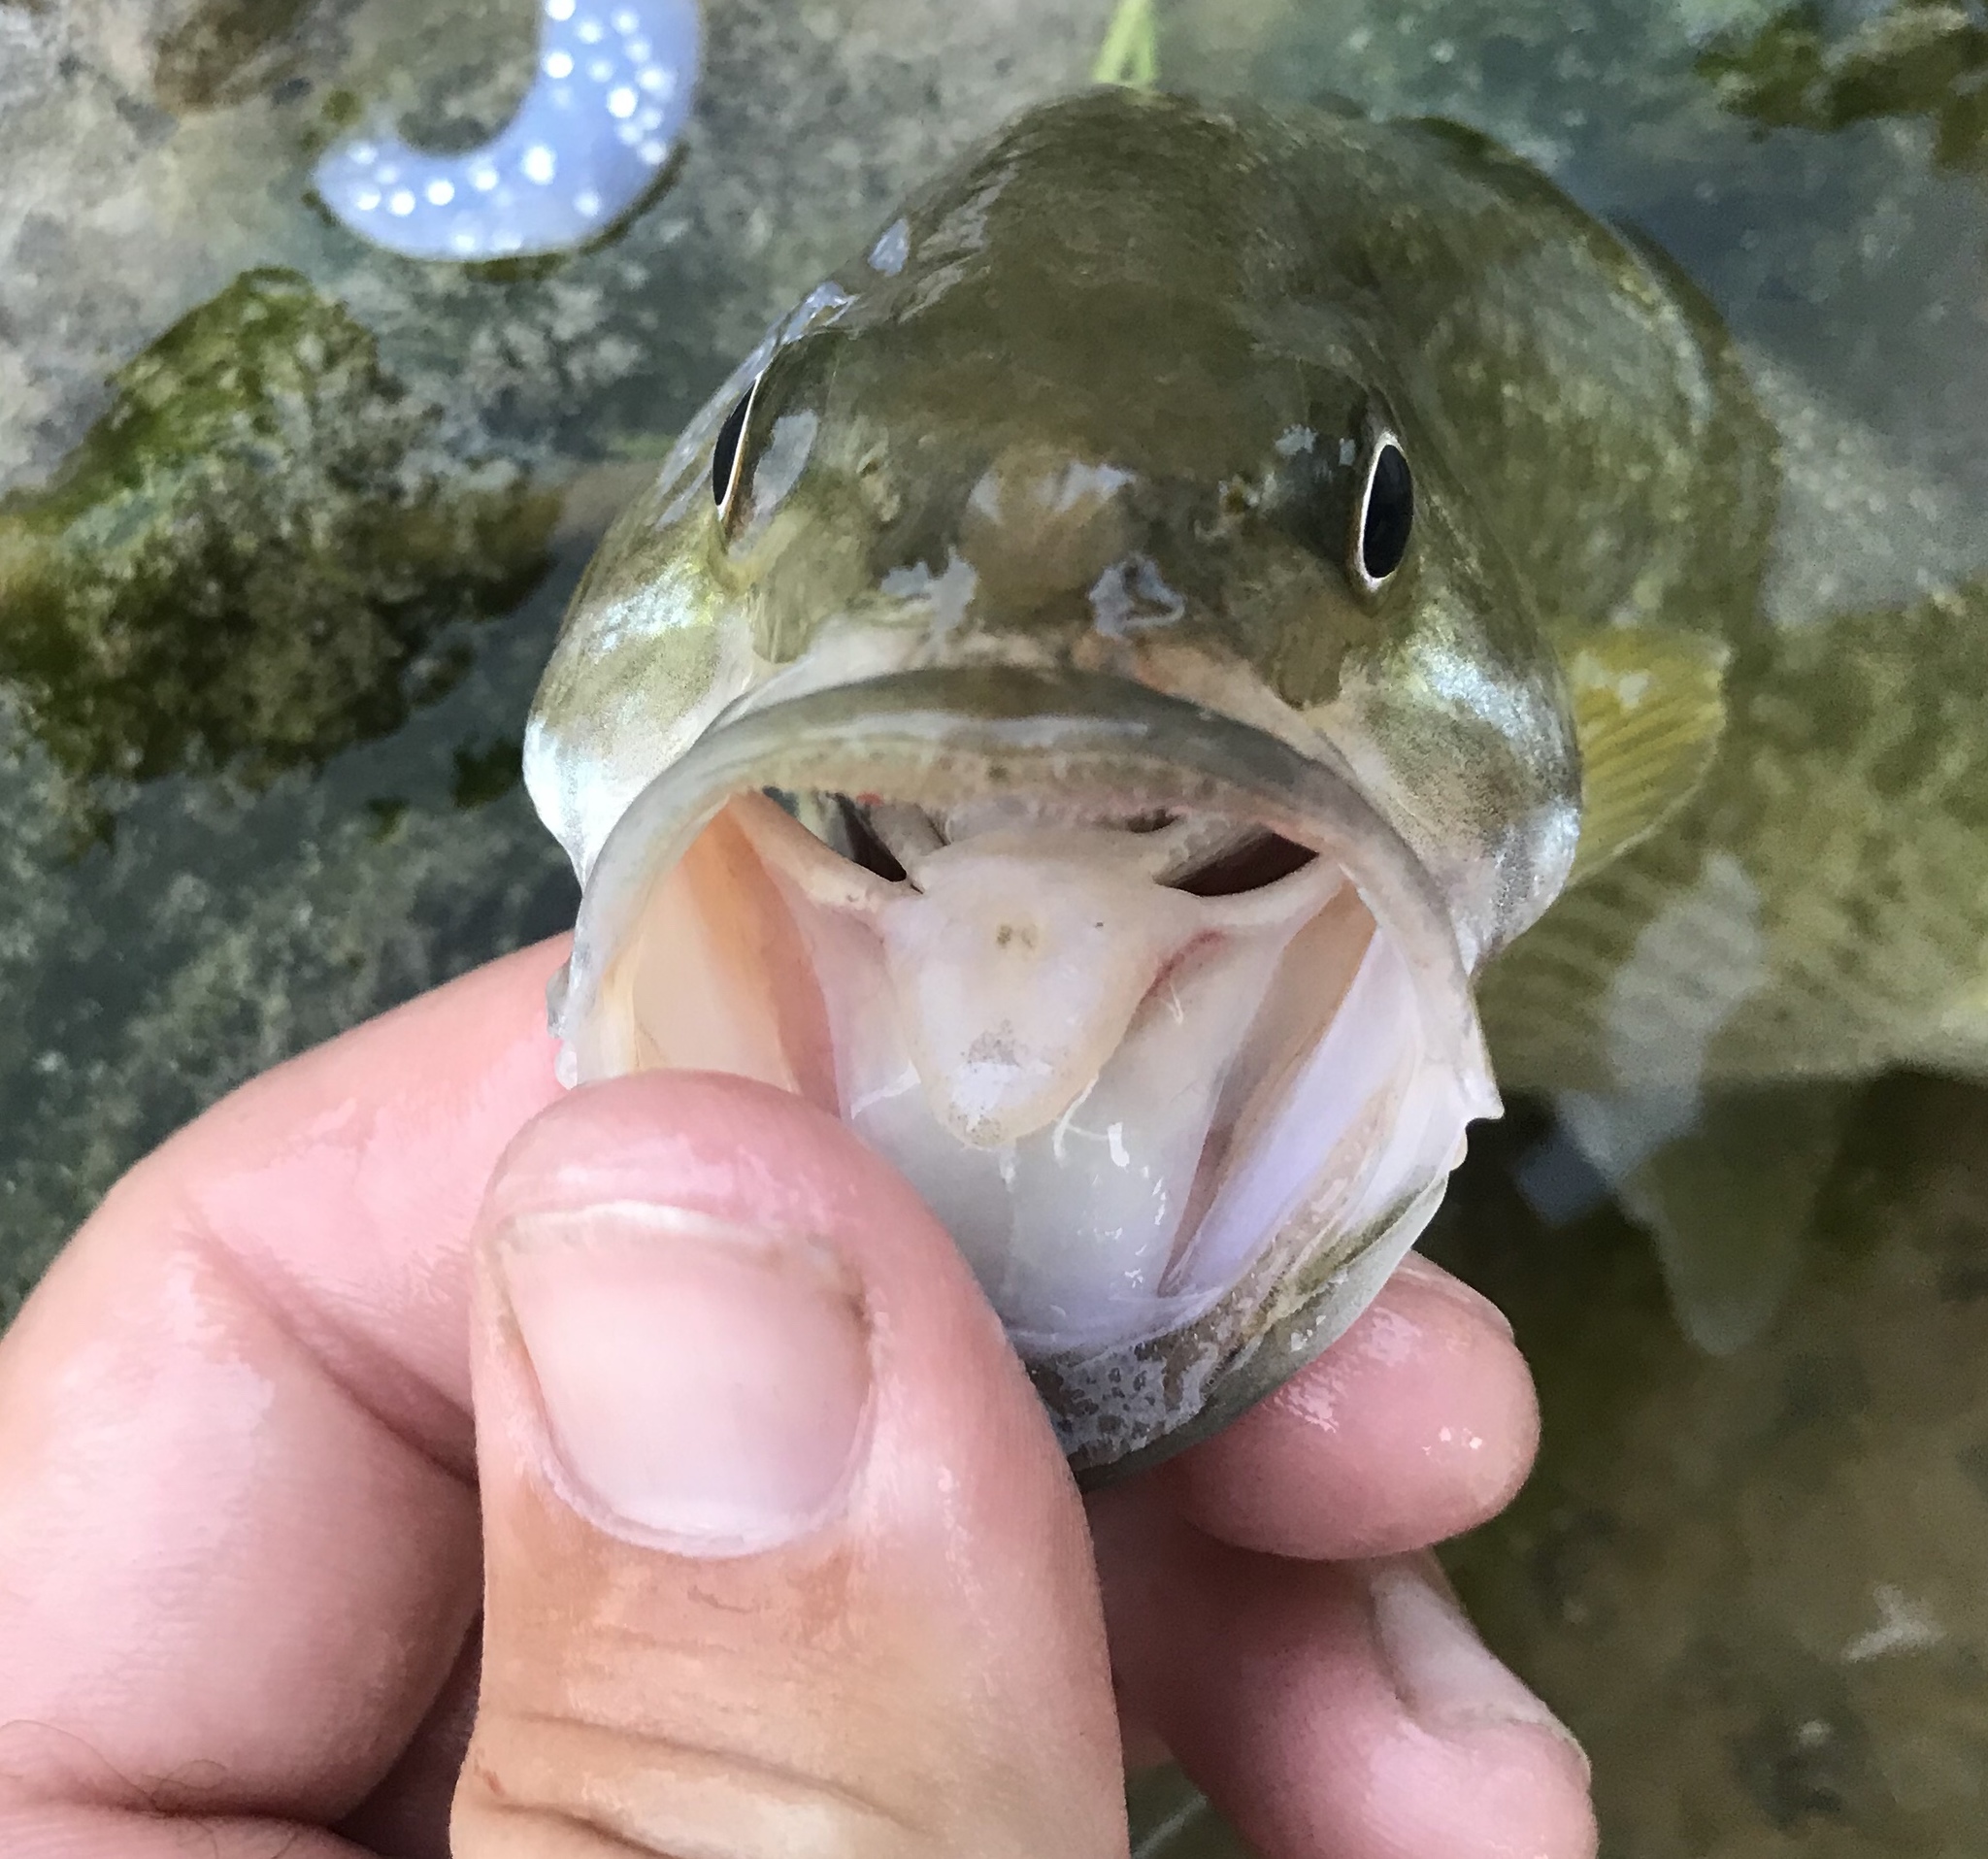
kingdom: Animalia
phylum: Chordata
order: Perciformes
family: Centrarchidae
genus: Micropterus
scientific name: Micropterus treculii
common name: Guadalupe bass
